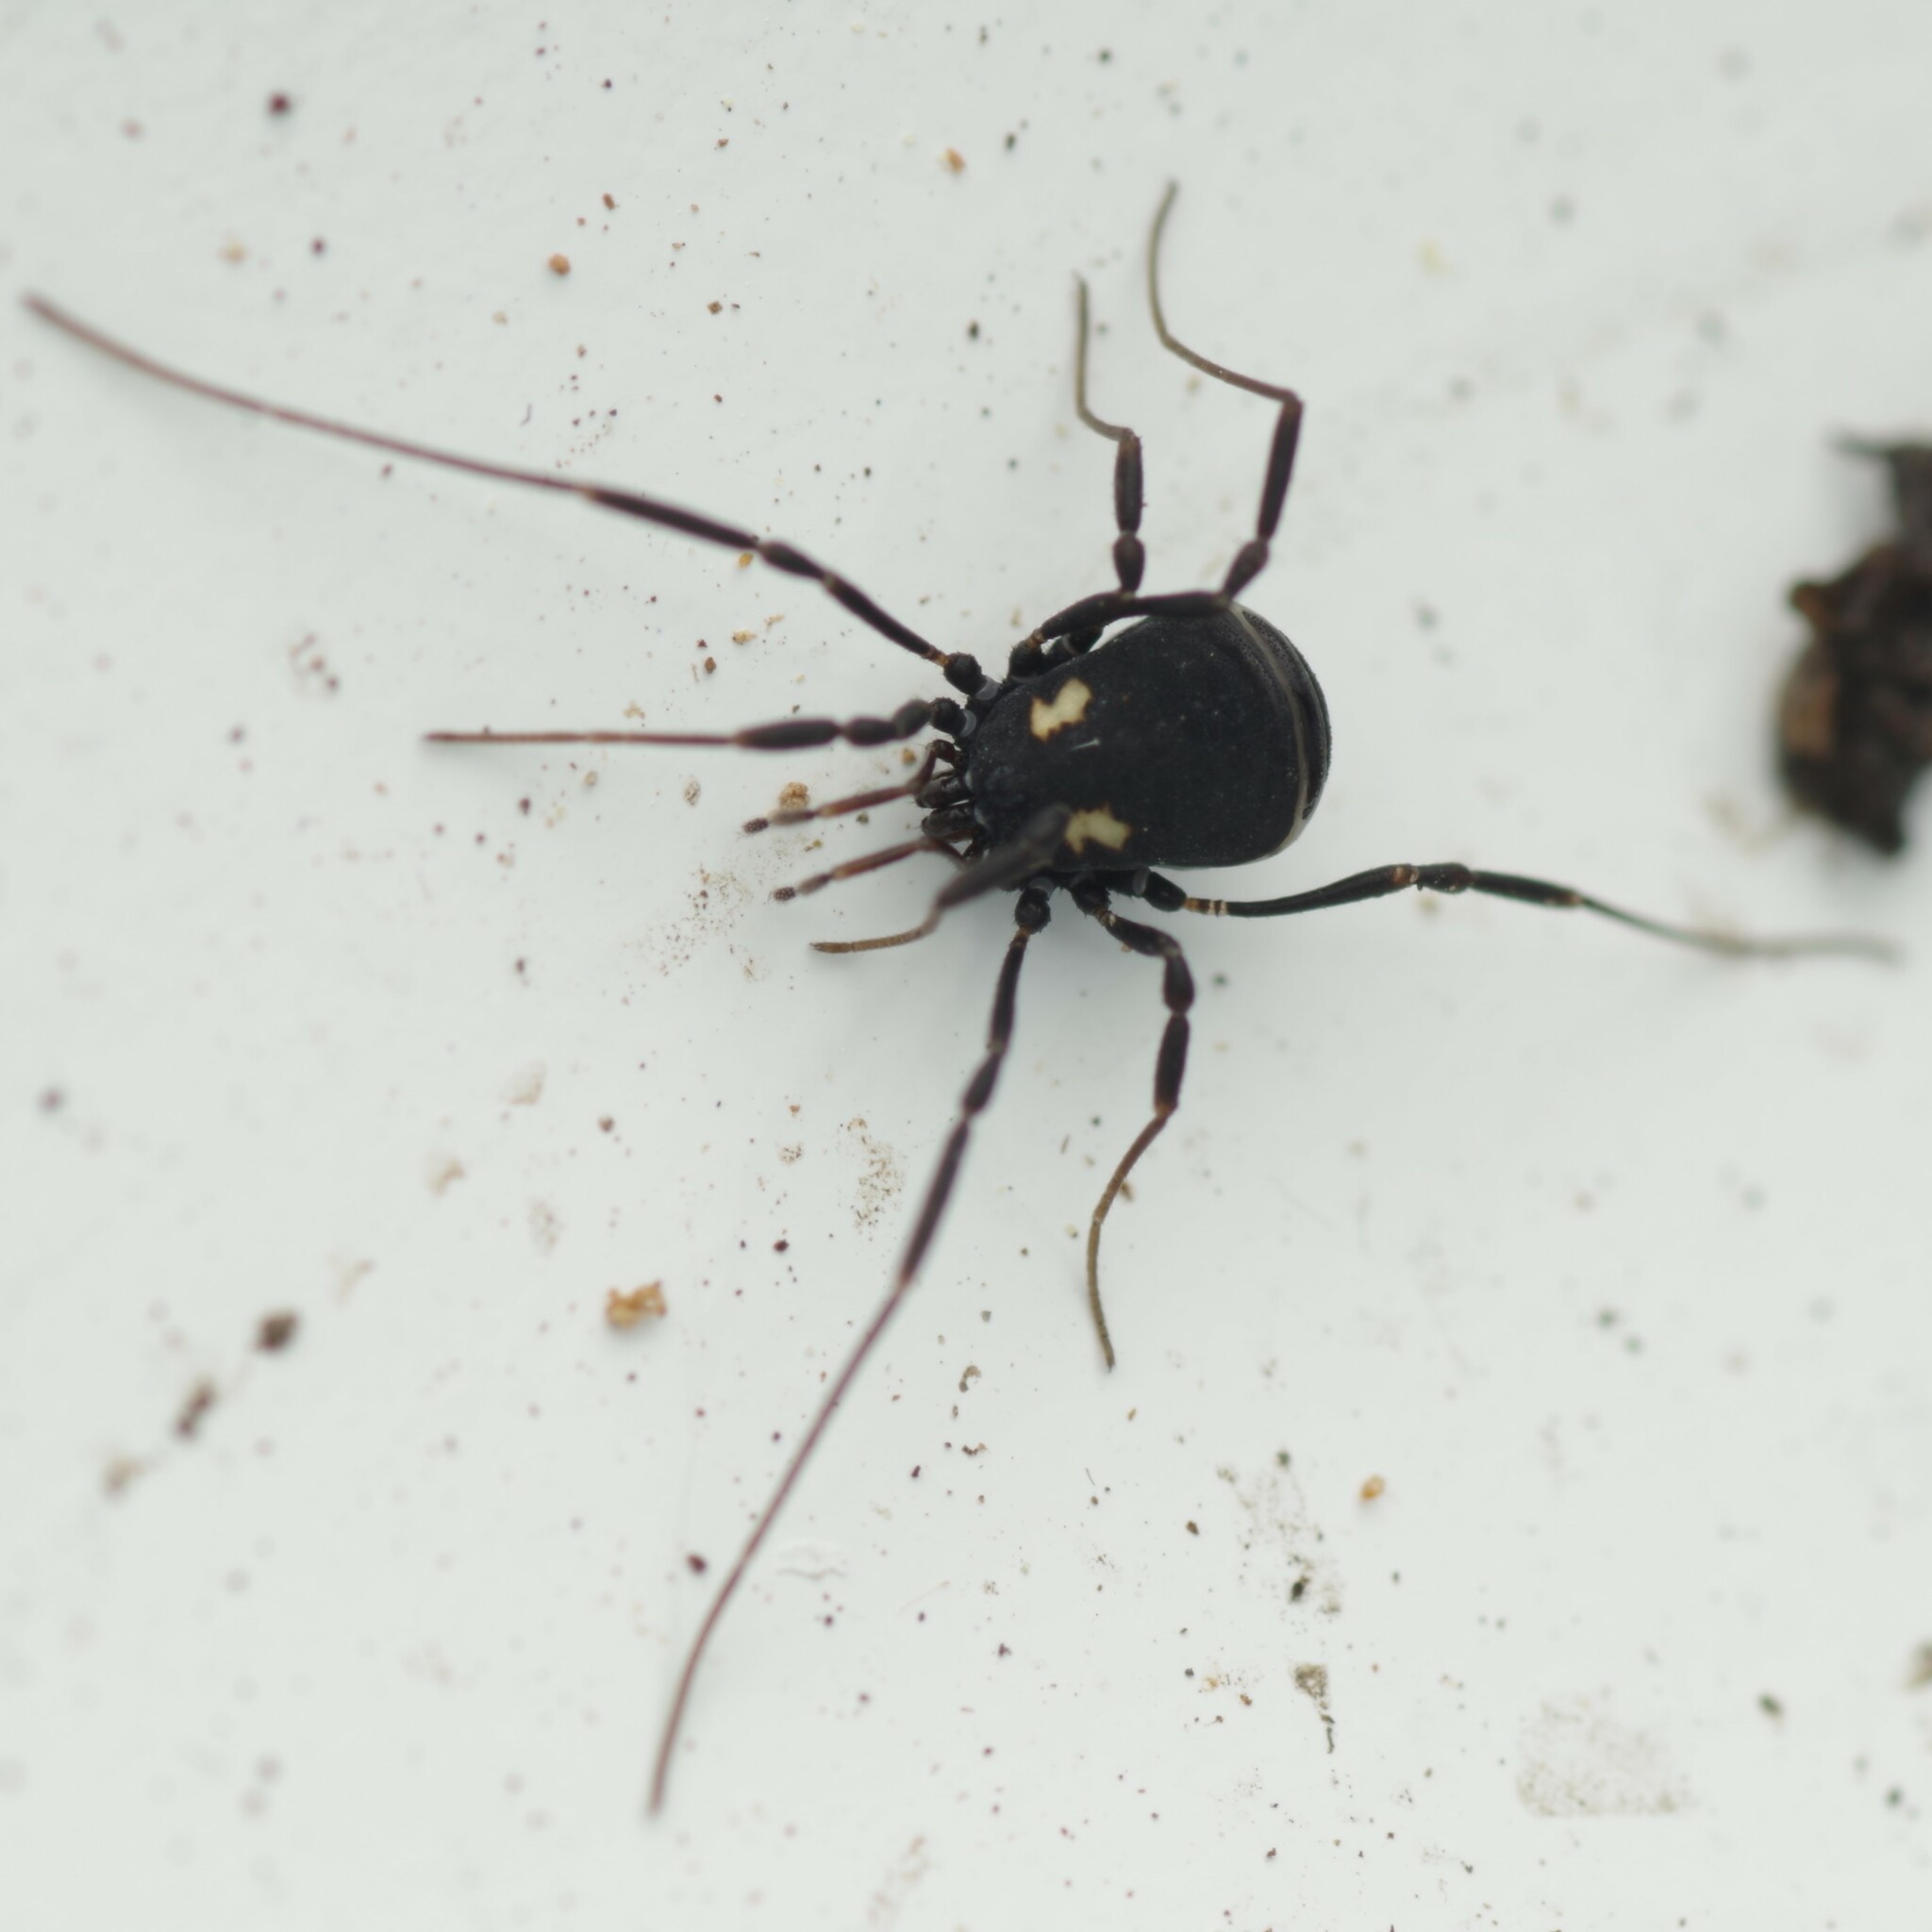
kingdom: Animalia
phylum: Arthropoda
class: Arachnida
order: Opiliones
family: Nemastomatidae
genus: Nemastoma
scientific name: Nemastoma bimaculatum
